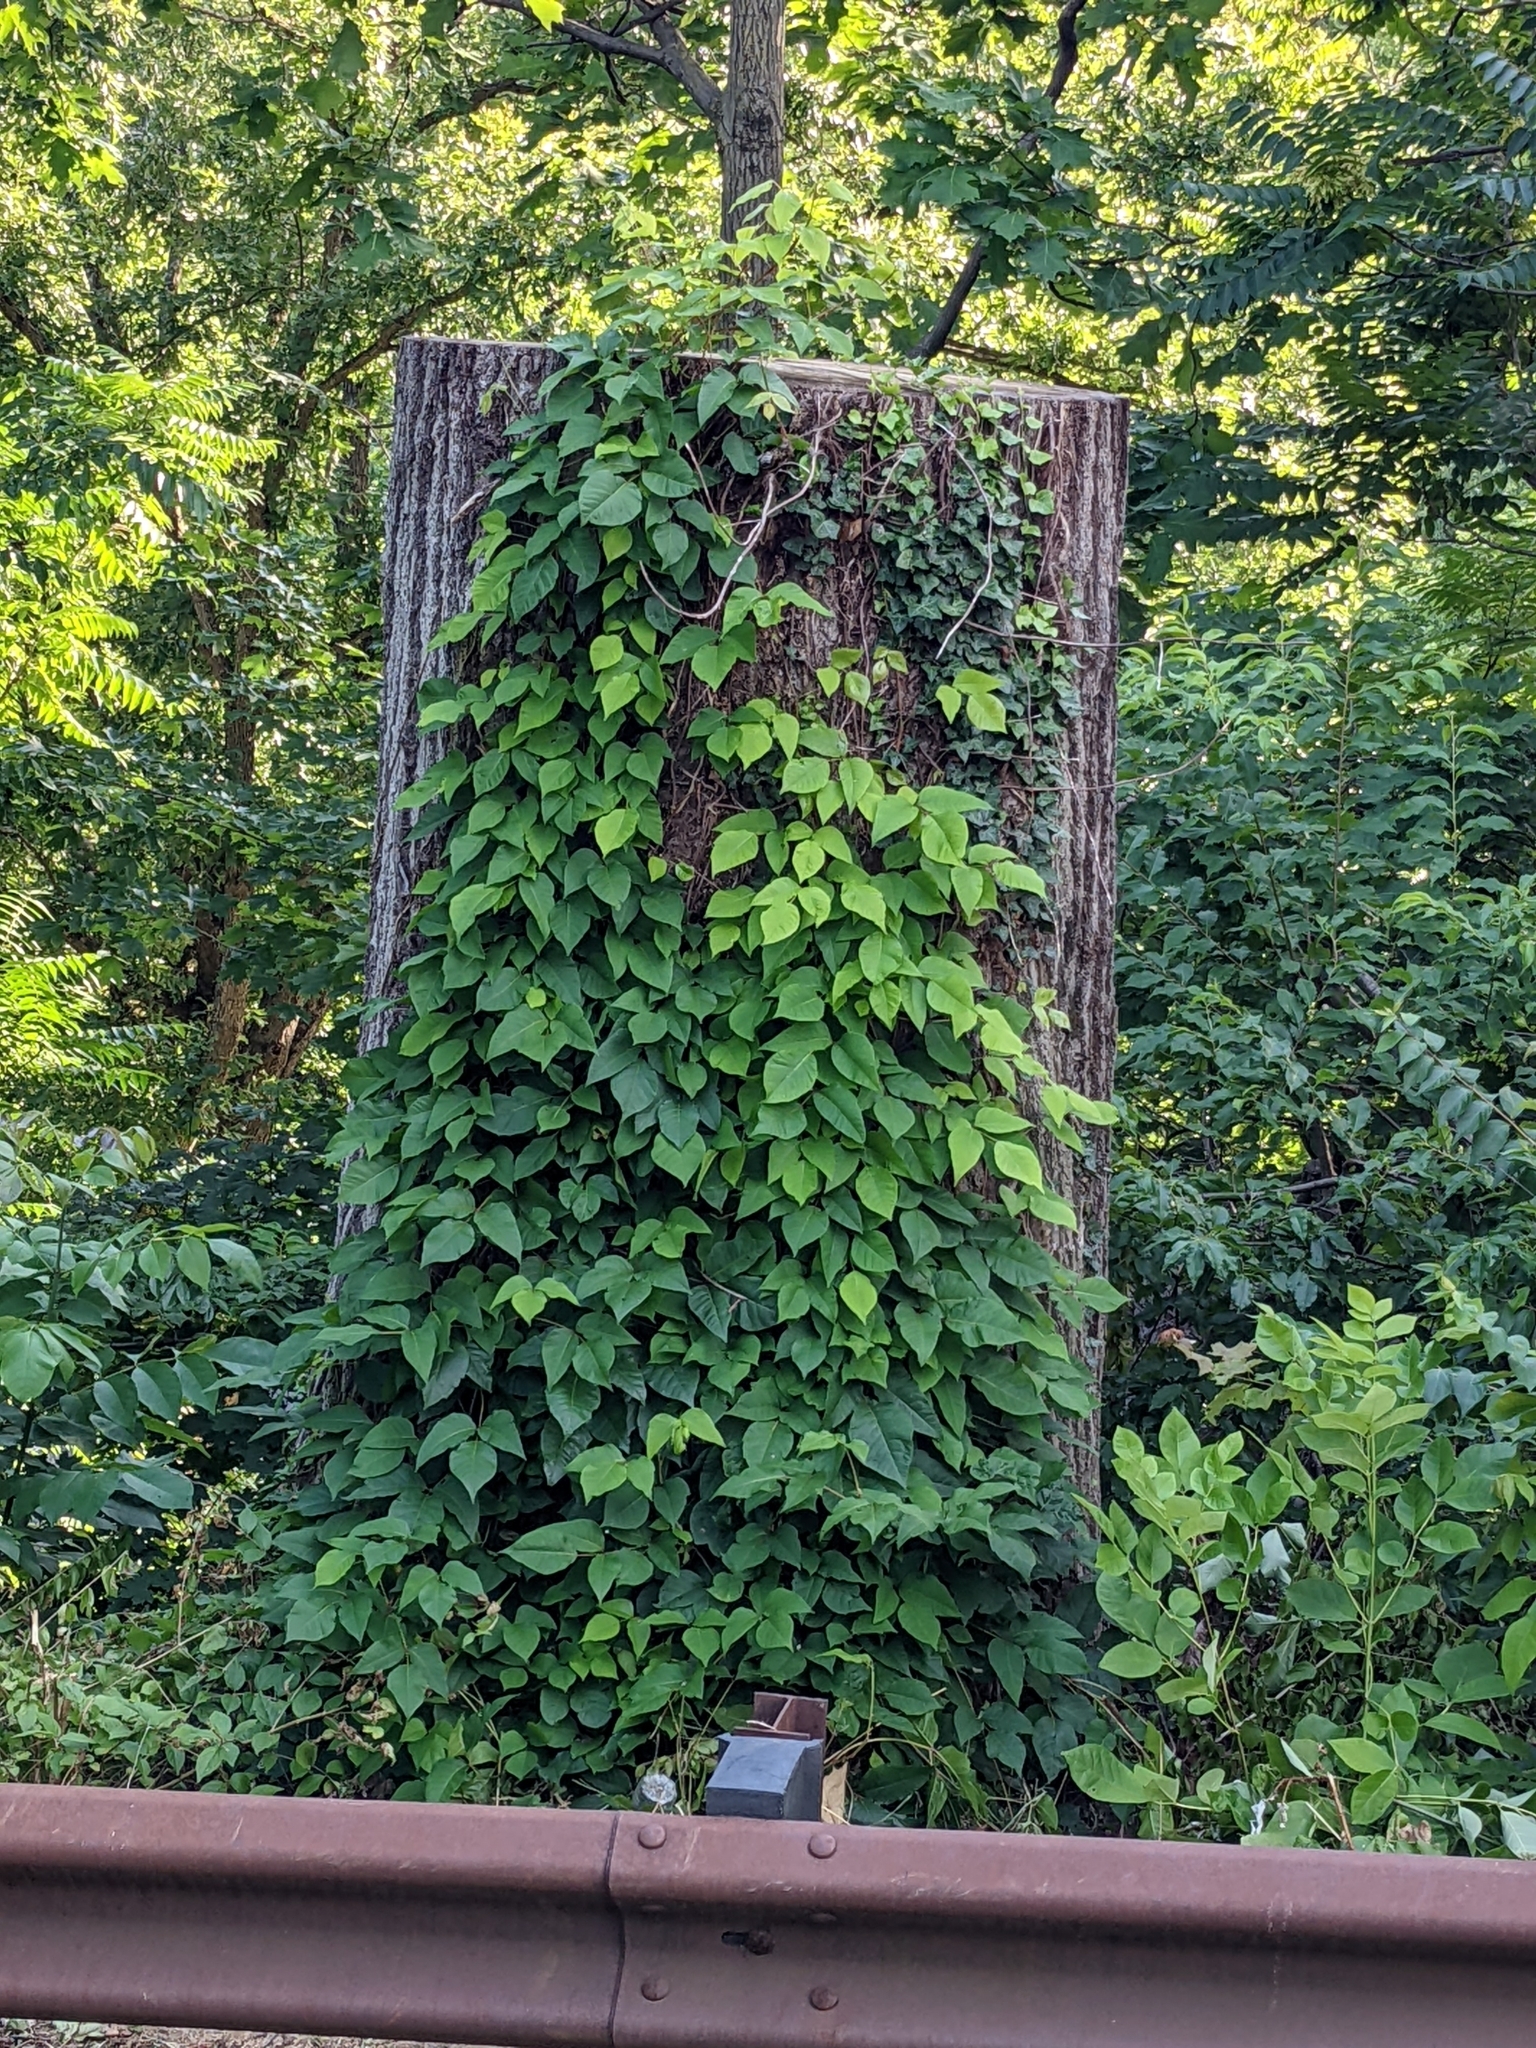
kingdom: Plantae
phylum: Tracheophyta
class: Magnoliopsida
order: Sapindales
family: Anacardiaceae
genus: Toxicodendron
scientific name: Toxicodendron radicans
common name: Poison ivy
